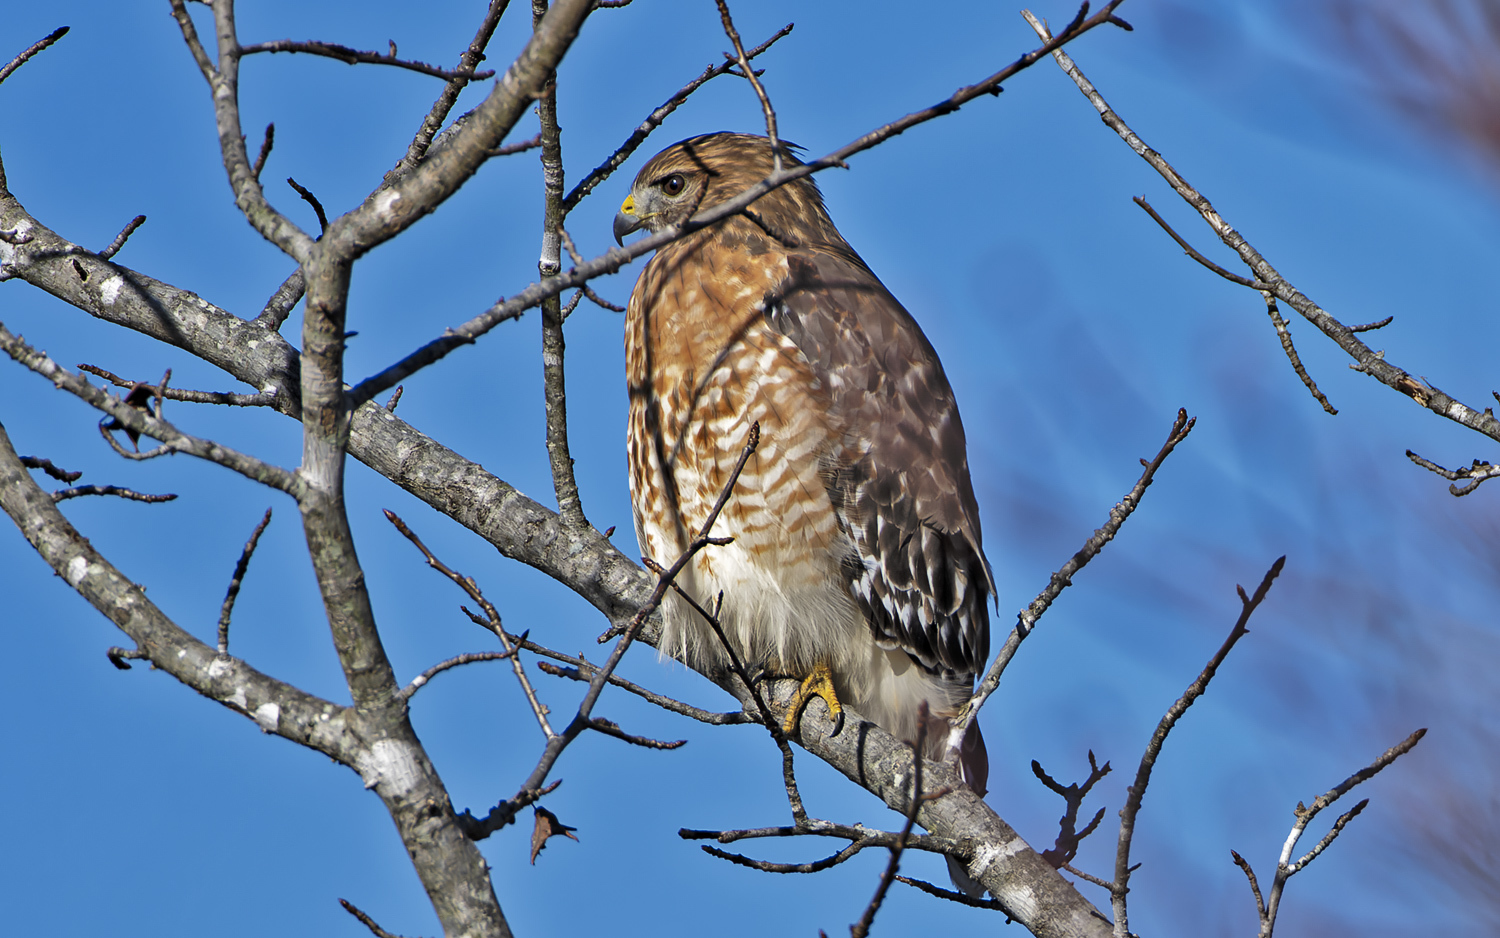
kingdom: Animalia
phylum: Chordata
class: Aves
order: Accipitriformes
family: Accipitridae
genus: Buteo
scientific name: Buteo lineatus
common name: Red-shouldered hawk
